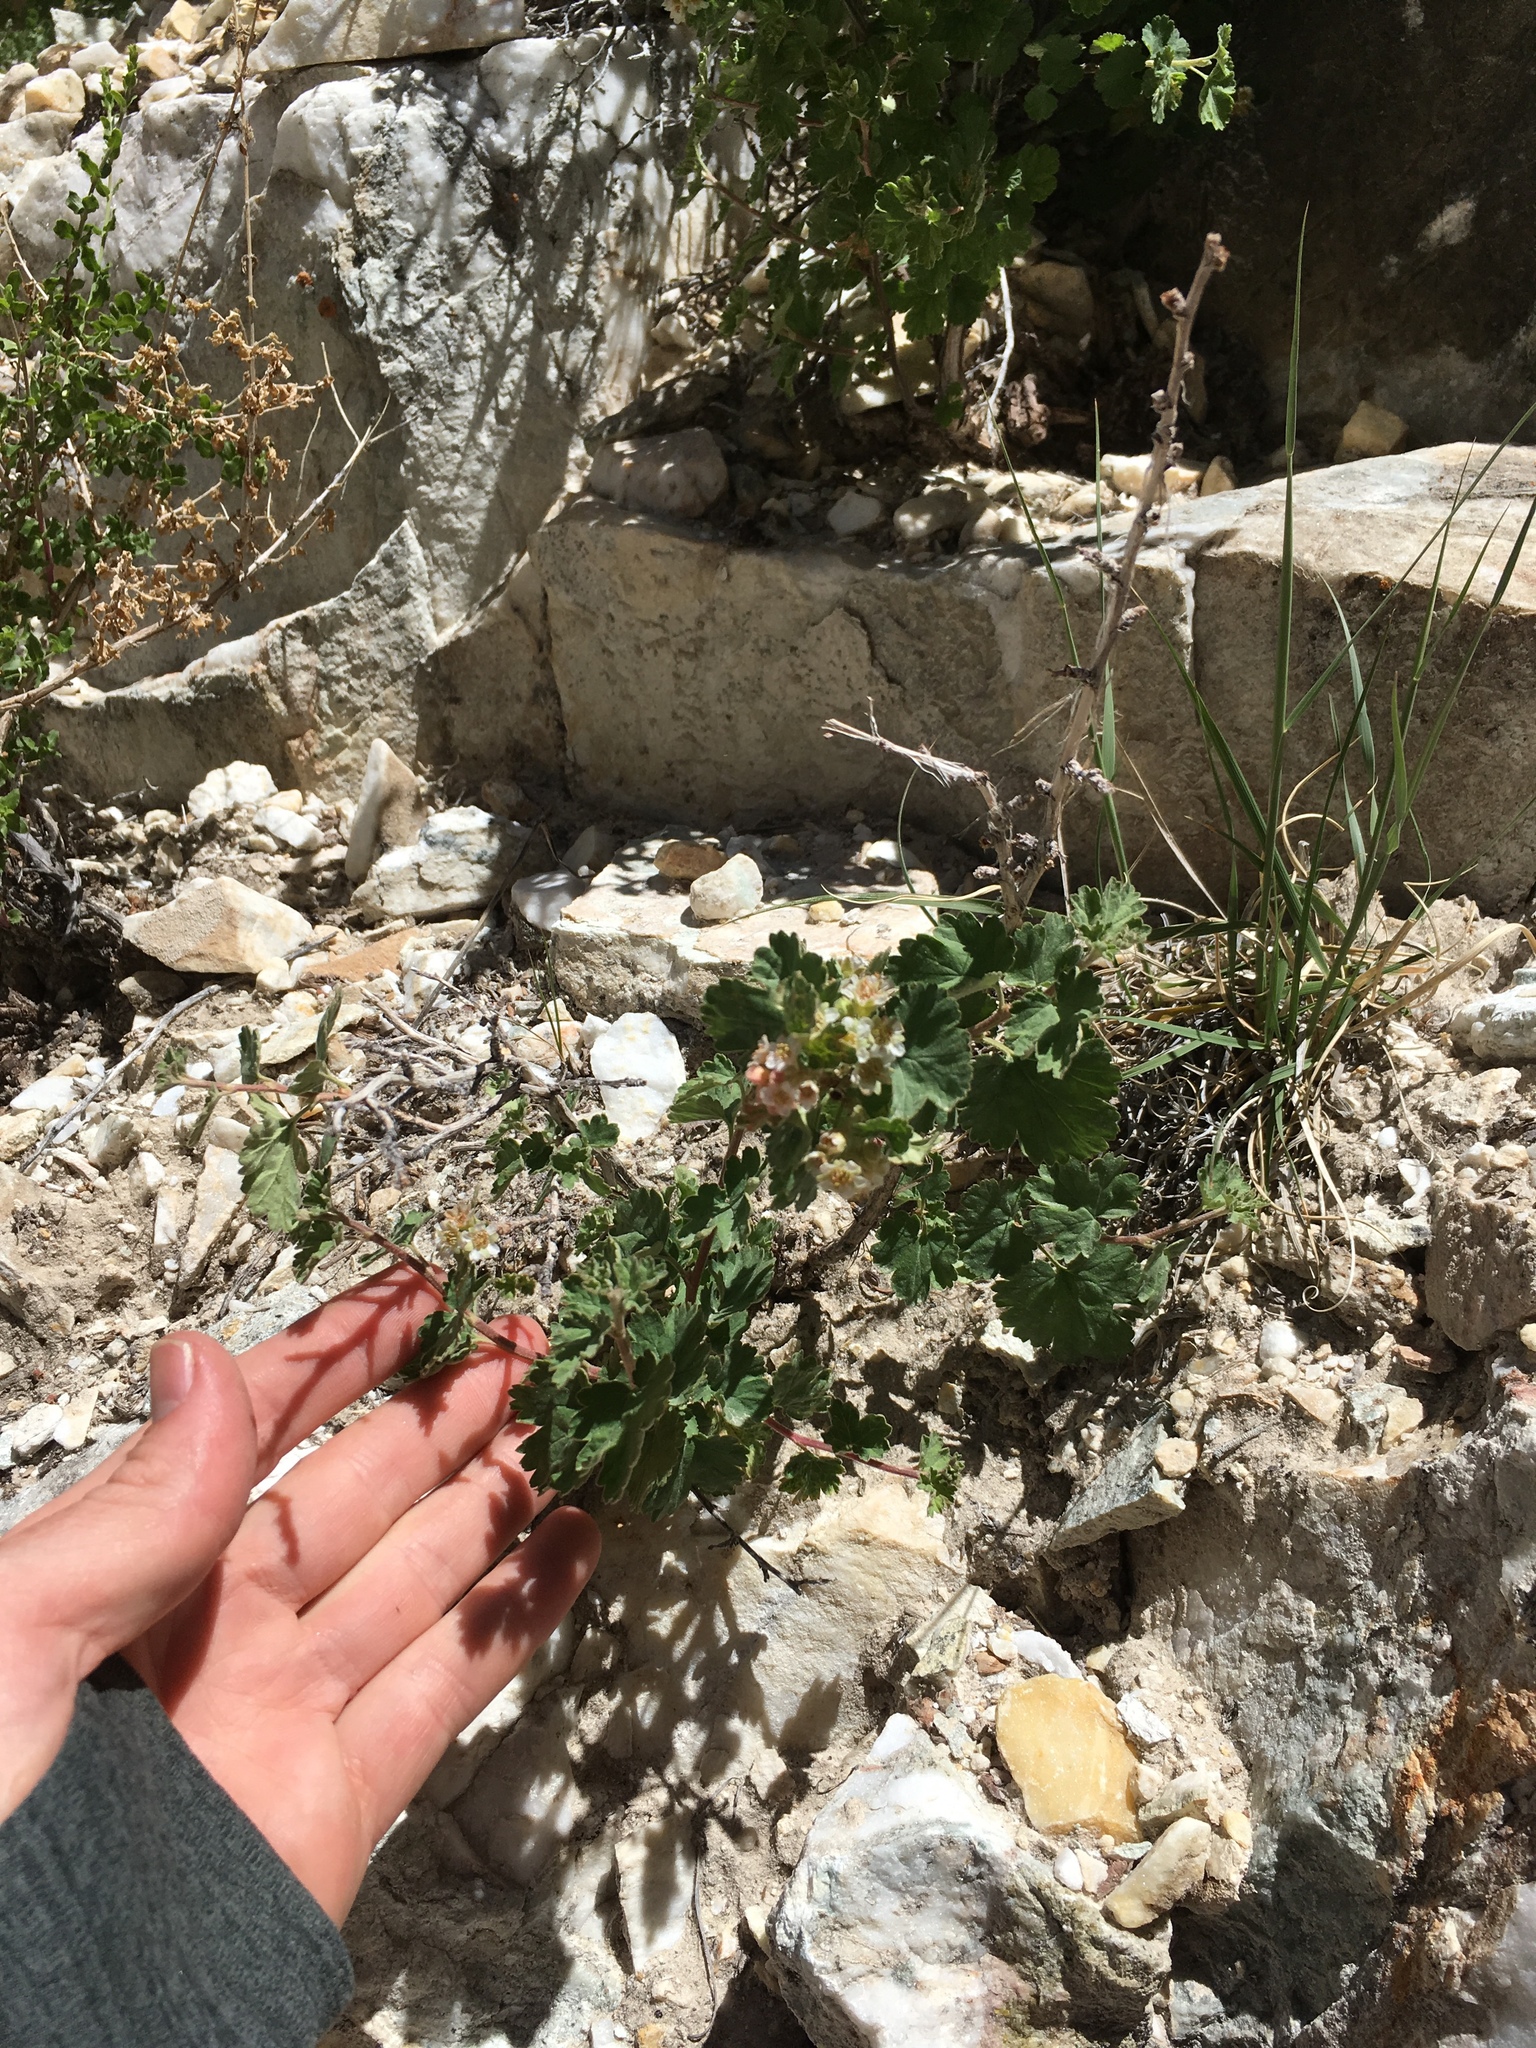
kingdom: Plantae
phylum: Tracheophyta
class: Magnoliopsida
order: Rosales
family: Rosaceae
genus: Physocarpus
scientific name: Physocarpus alternans
